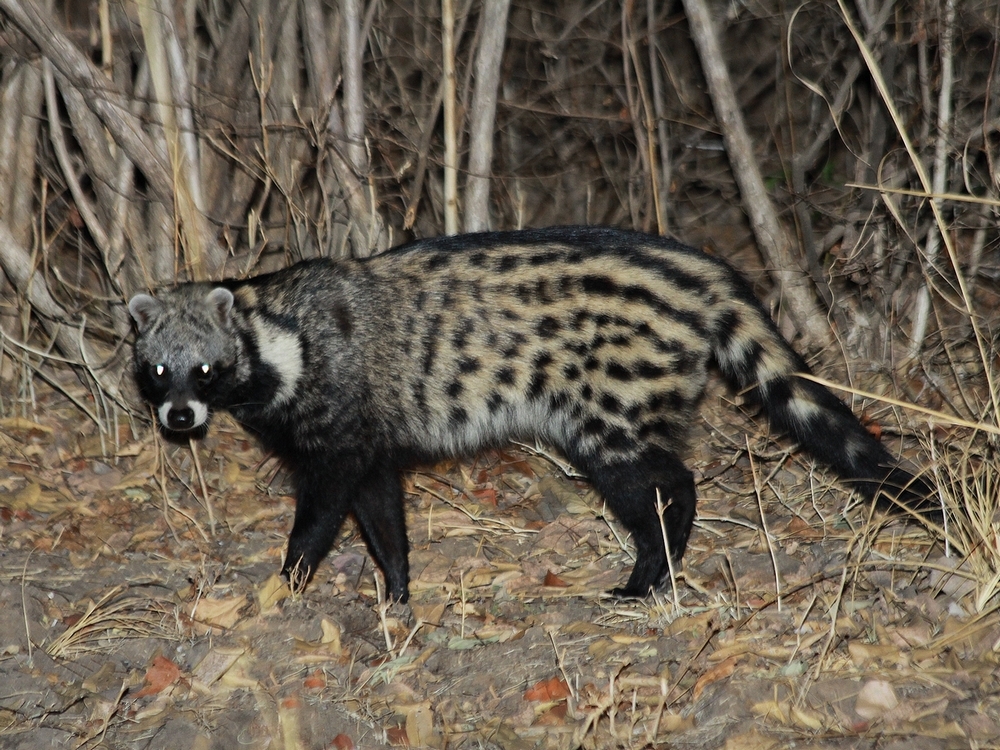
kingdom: Animalia
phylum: Chordata
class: Mammalia
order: Carnivora
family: Viverridae
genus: Civettictis
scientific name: Civettictis civetta
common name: African civet
